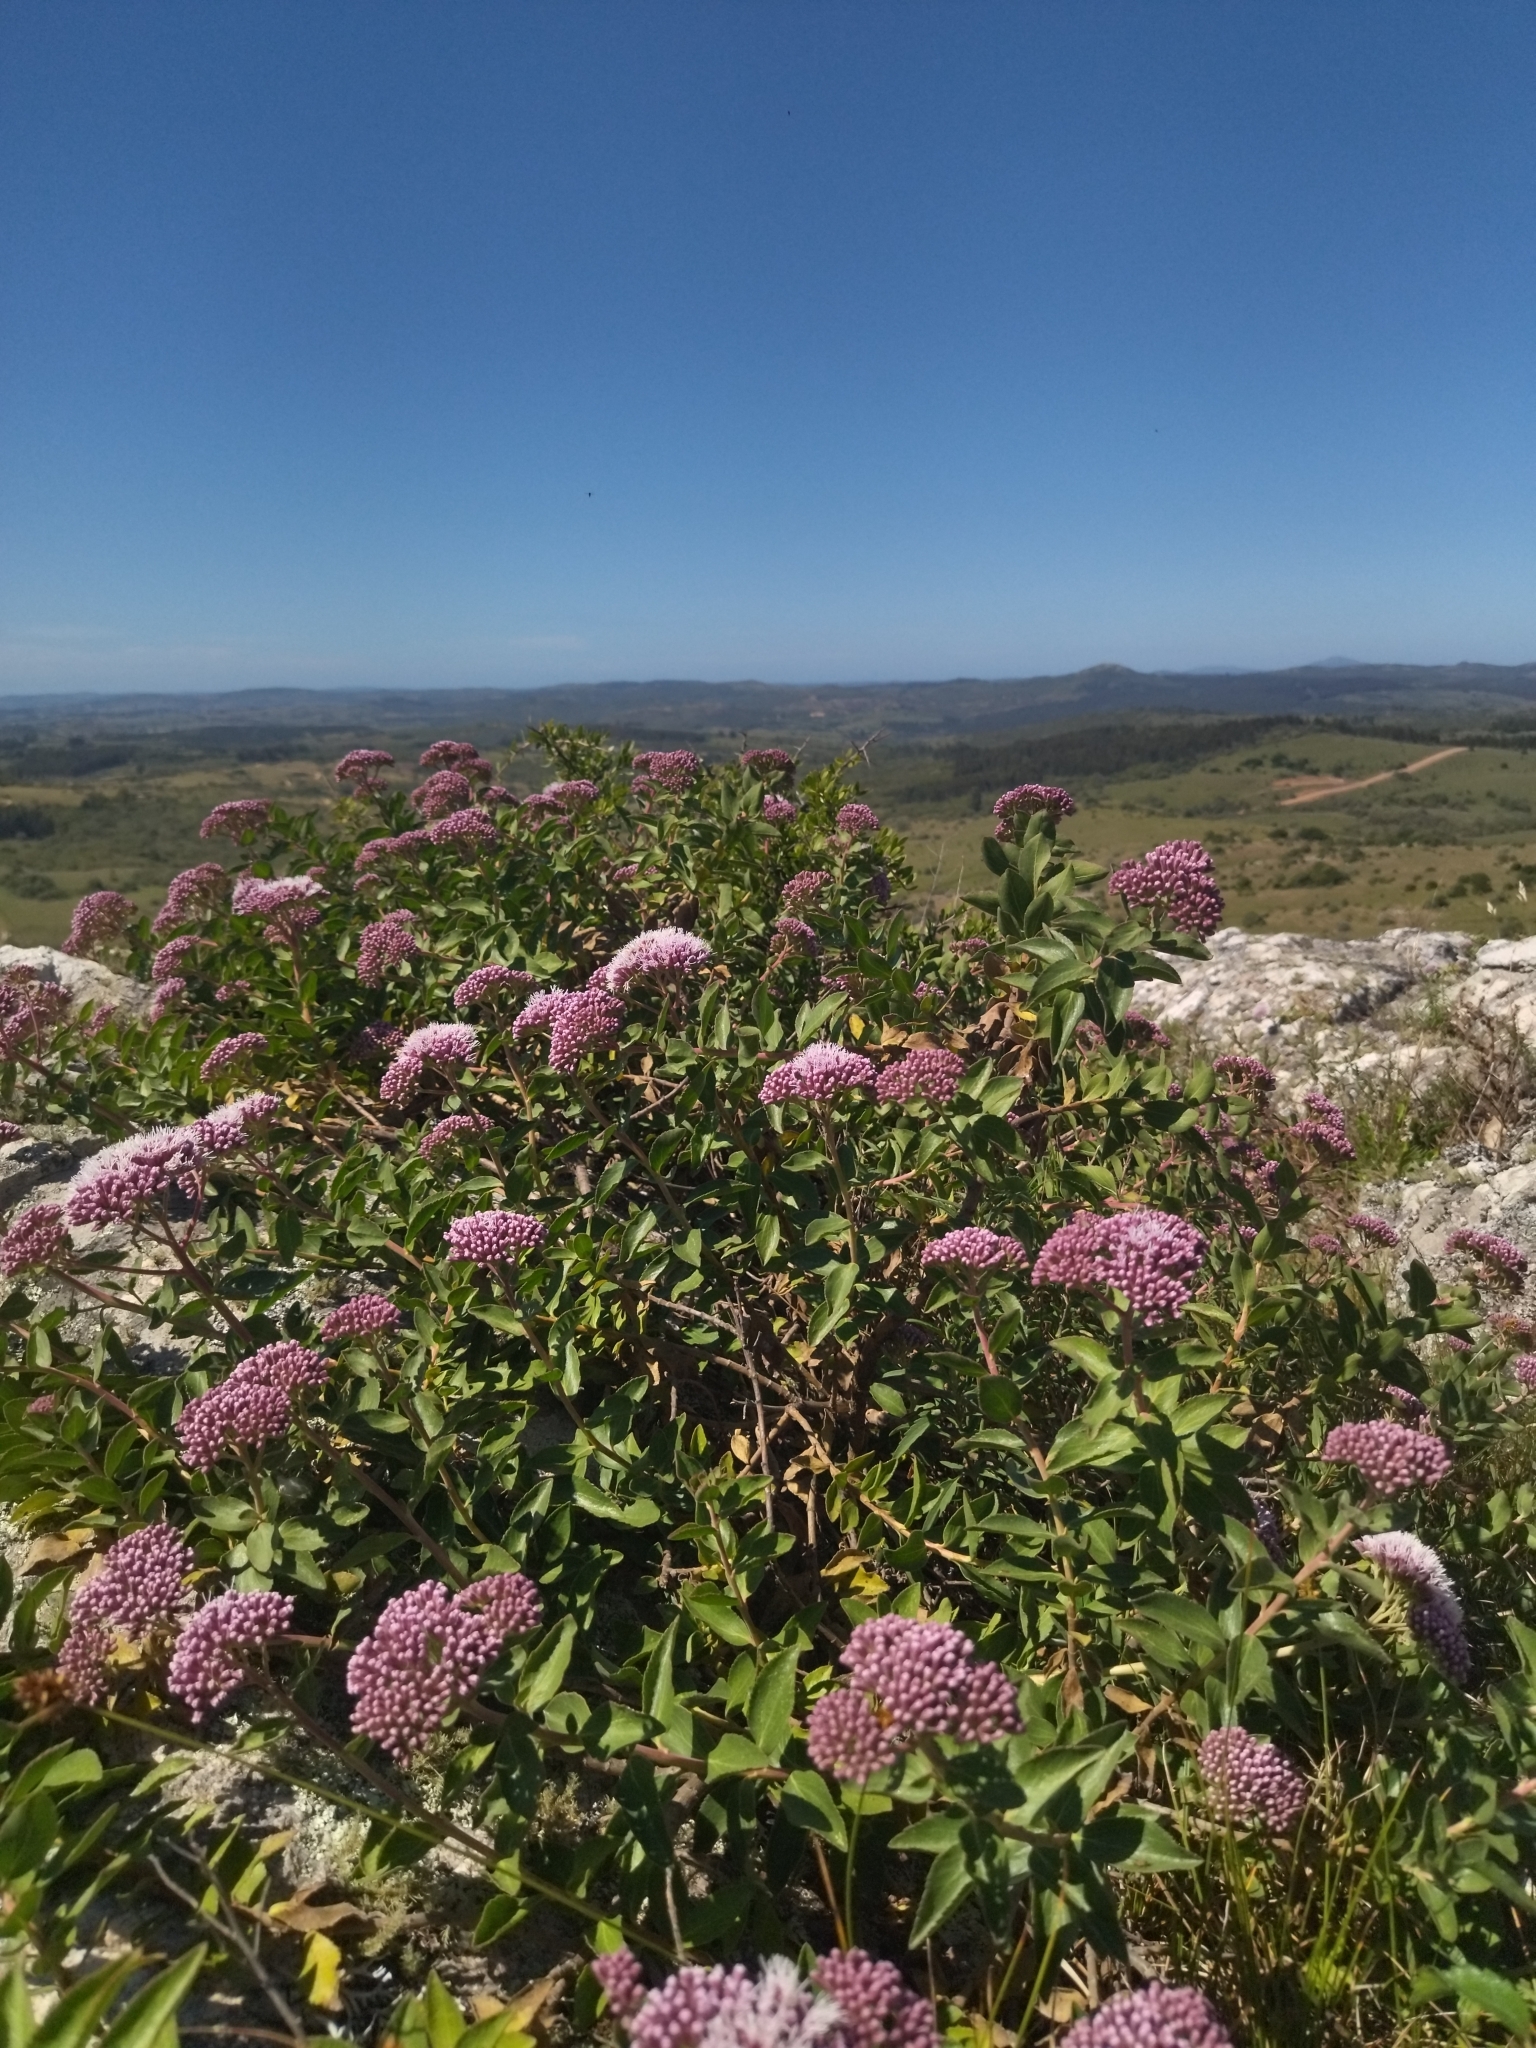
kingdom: Plantae
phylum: Tracheophyta
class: Magnoliopsida
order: Asterales
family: Asteraceae
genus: Grazielia
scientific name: Grazielia brevipetiolata
